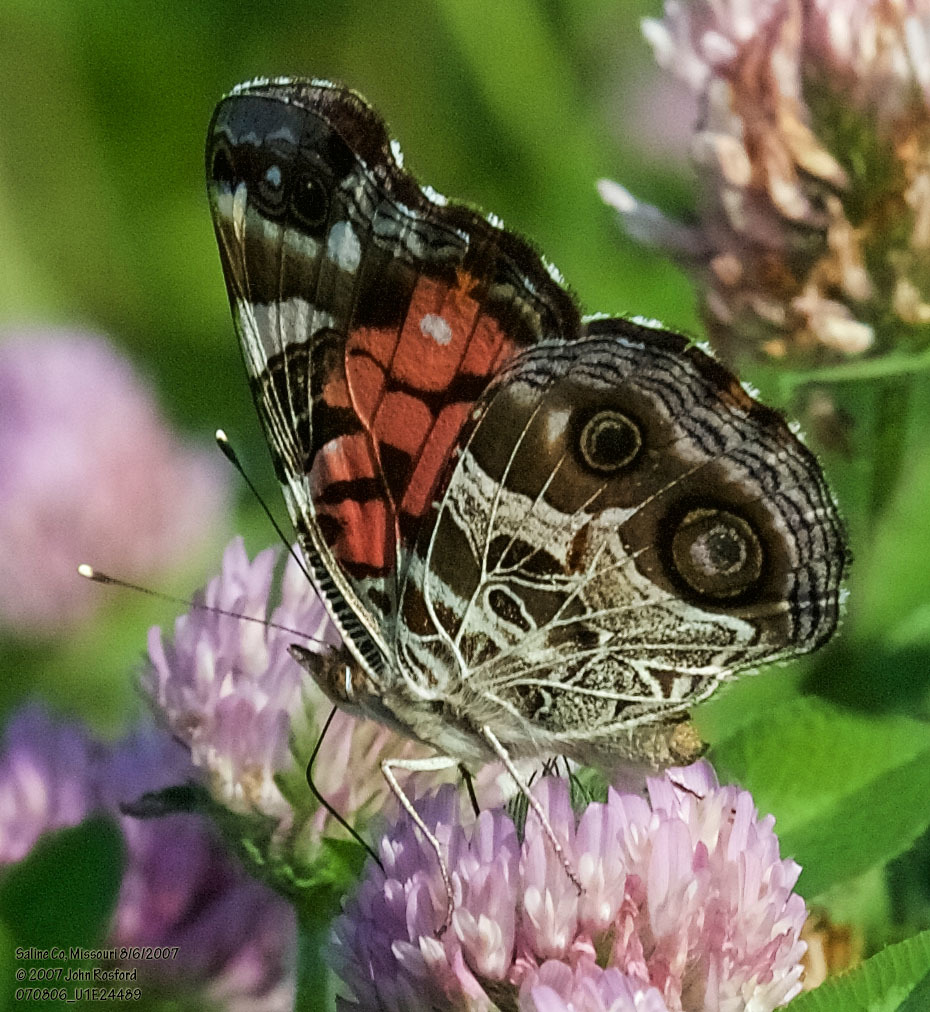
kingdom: Animalia
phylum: Arthropoda
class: Insecta
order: Lepidoptera
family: Nymphalidae
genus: Vanessa
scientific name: Vanessa virginiensis
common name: American lady
